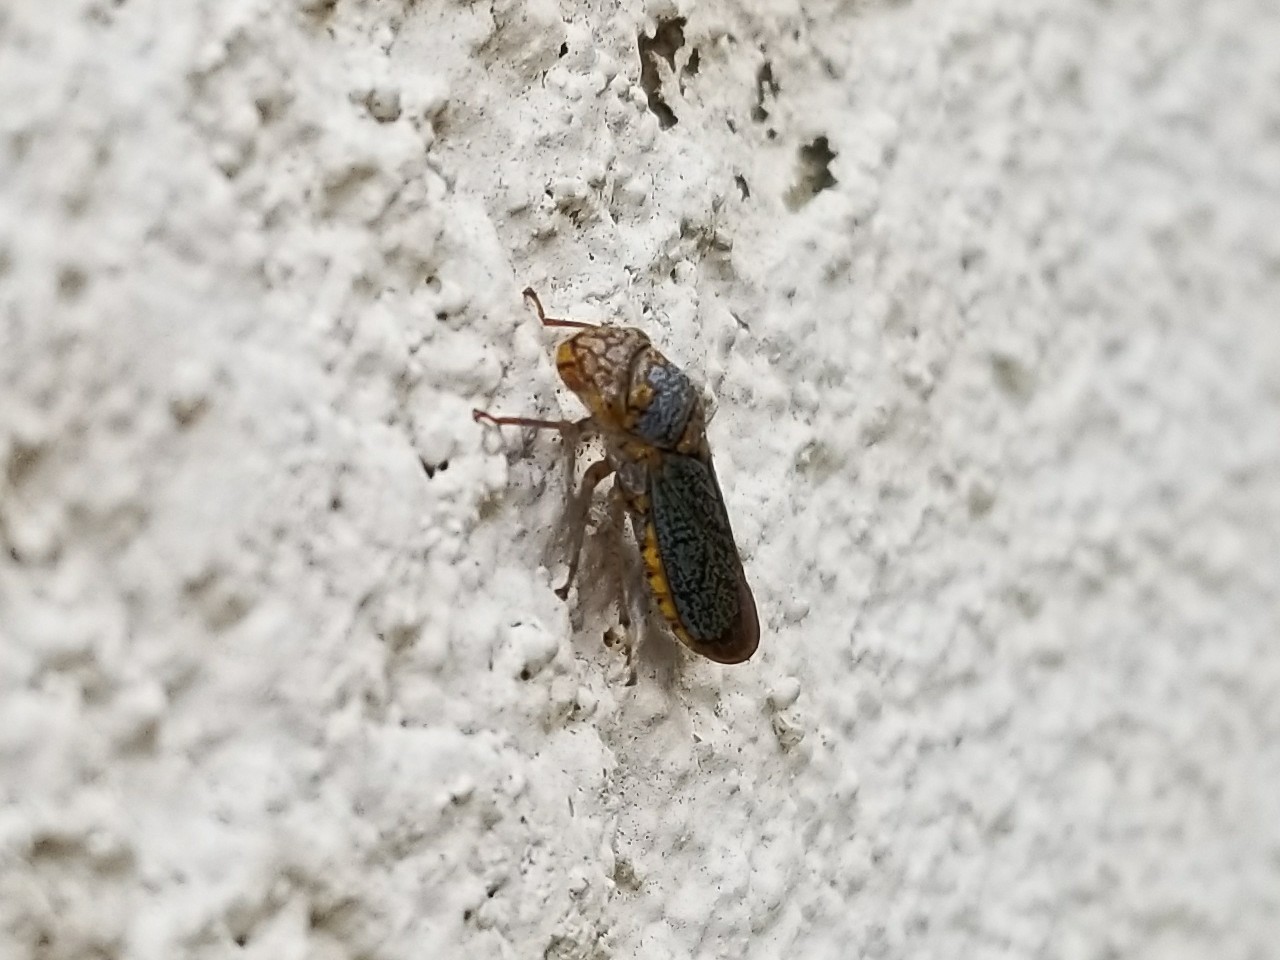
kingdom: Animalia
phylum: Arthropoda
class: Insecta
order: Hemiptera
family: Cicadellidae
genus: Oncometopia
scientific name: Oncometopia orbona
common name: Broad-headed sharpshooter
